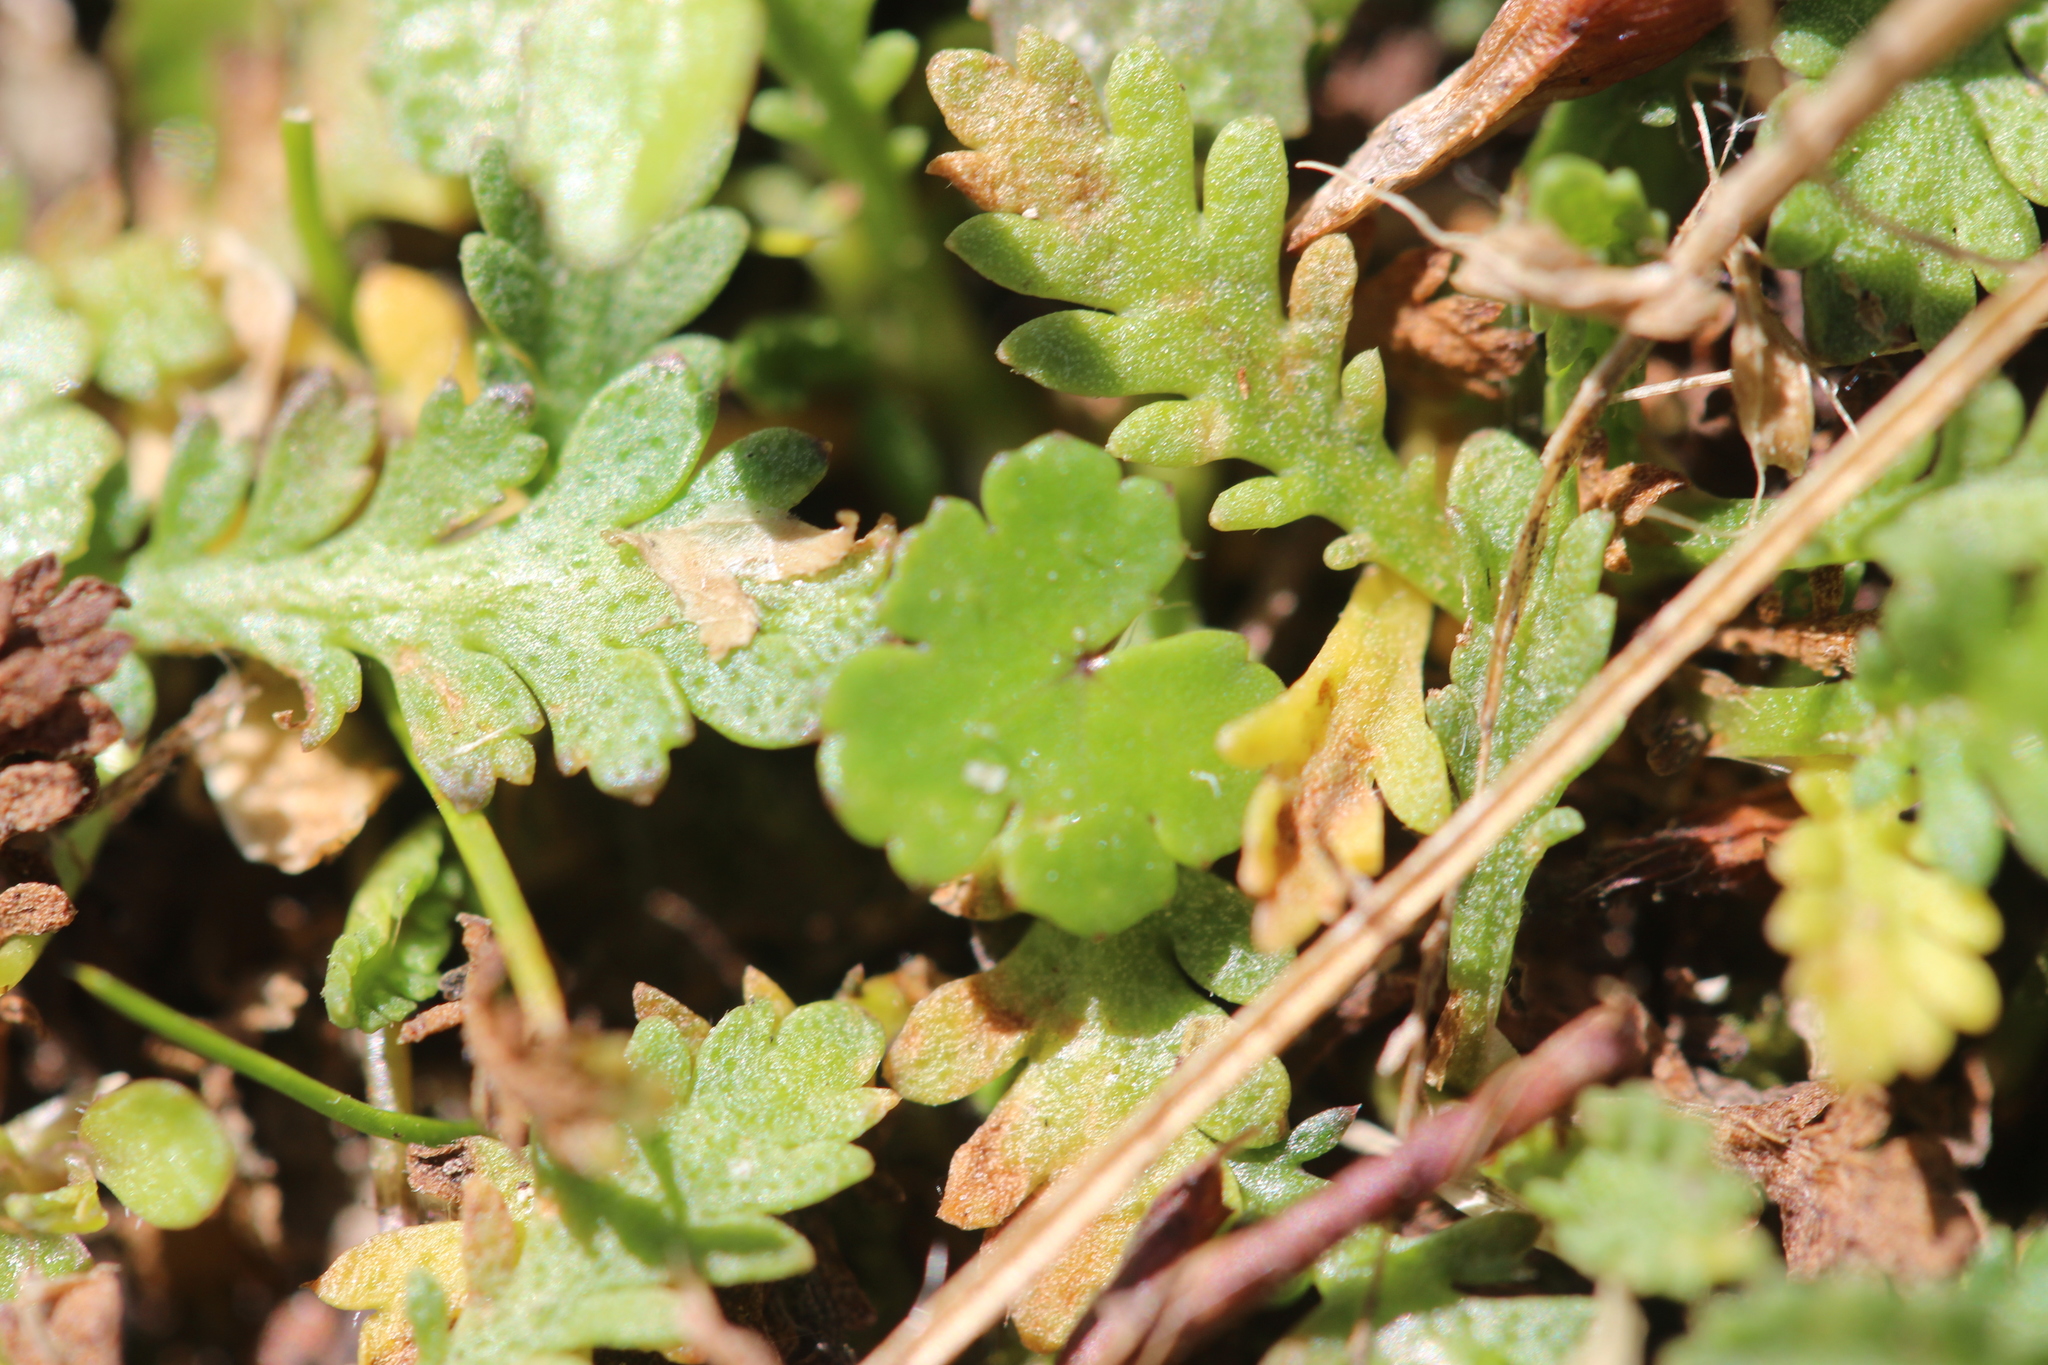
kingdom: Plantae
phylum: Tracheophyta
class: Magnoliopsida
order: Apiales
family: Araliaceae
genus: Hydrocotyle
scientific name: Hydrocotyle microphylla
